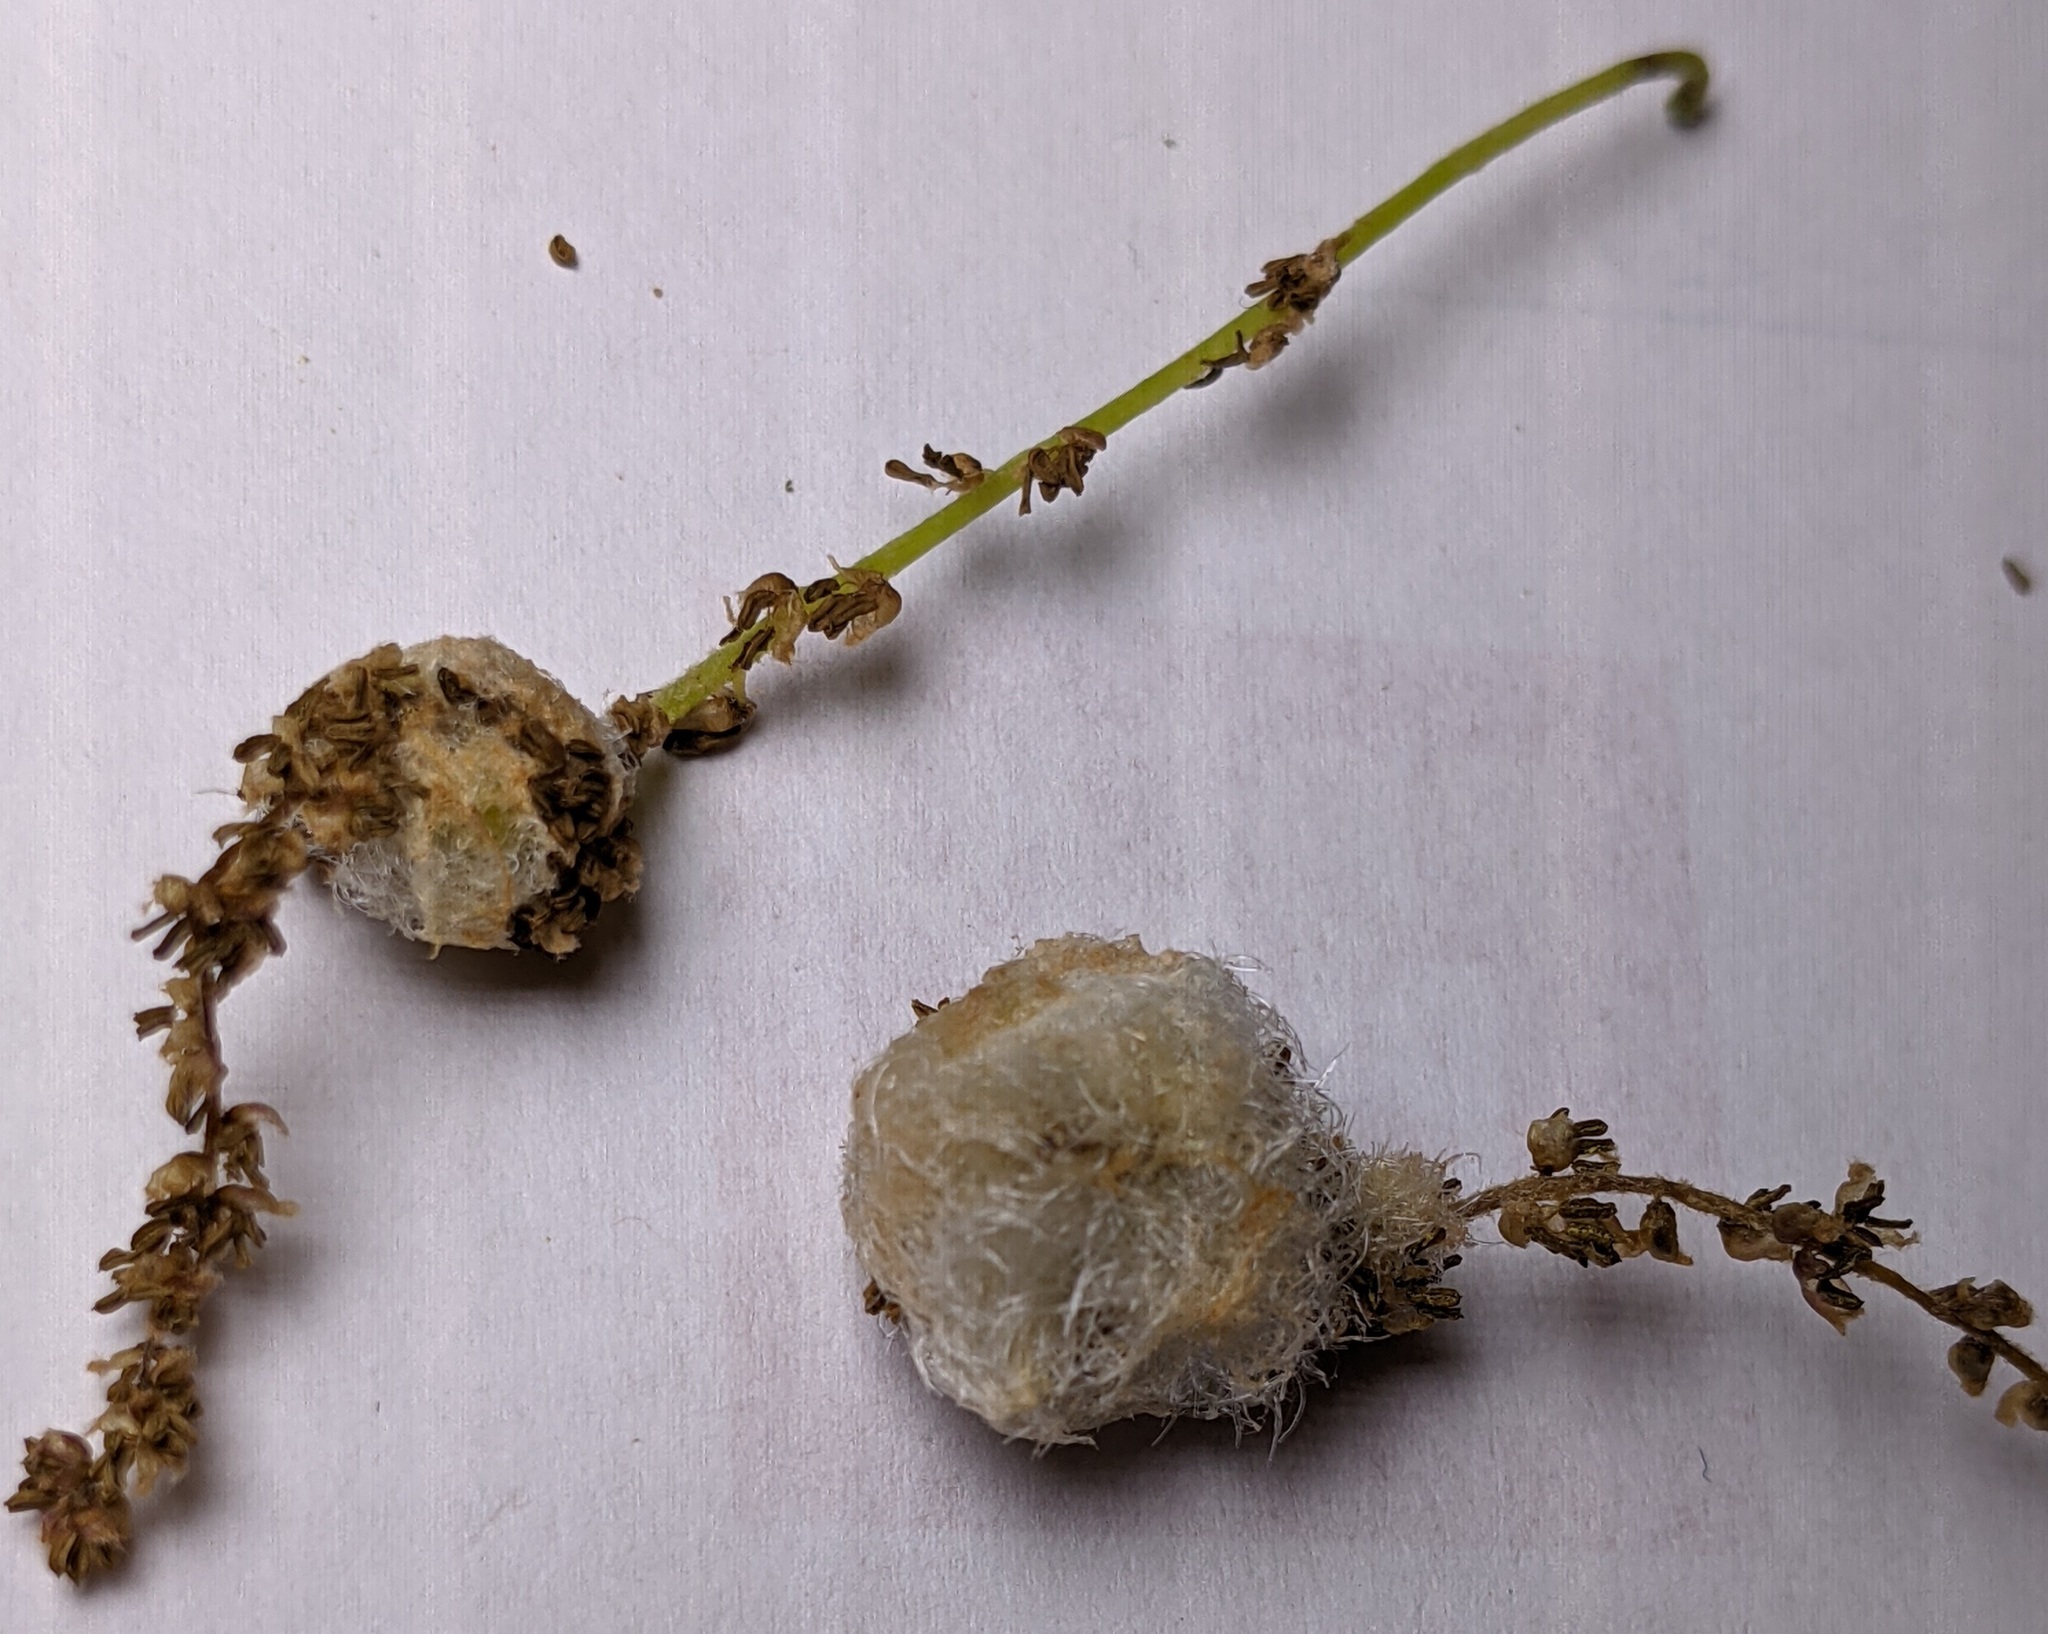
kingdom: Animalia
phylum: Arthropoda
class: Insecta
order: Hymenoptera
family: Cynipidae
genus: Callirhytis
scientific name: Callirhytis
